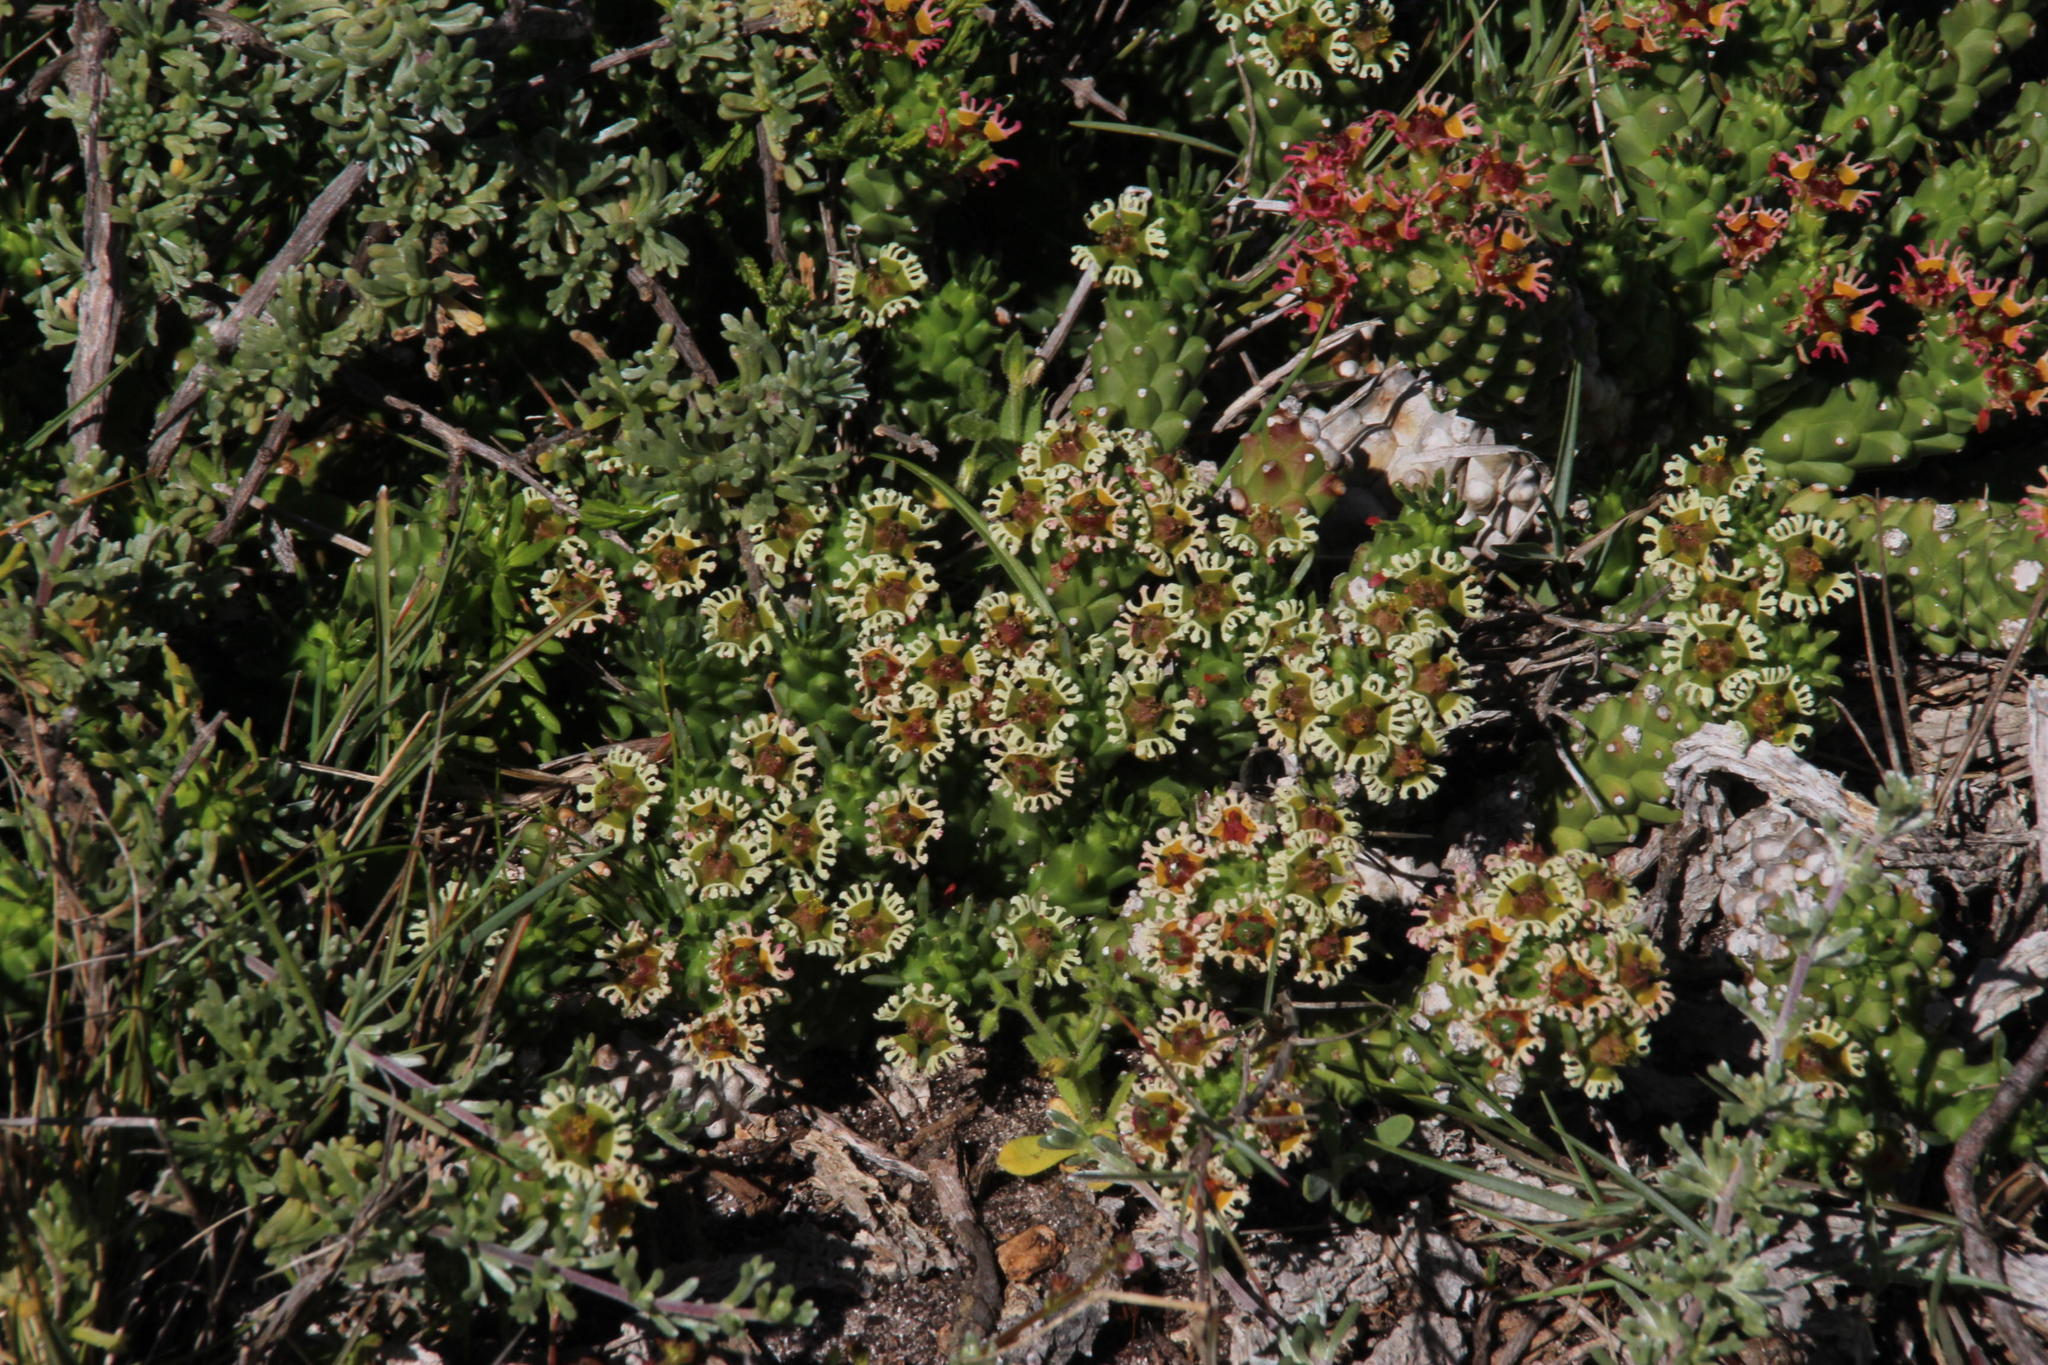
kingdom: Plantae
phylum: Tracheophyta
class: Magnoliopsida
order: Malpighiales
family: Euphorbiaceae
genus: Euphorbia
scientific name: Euphorbia caput-medusae
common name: Medusa's-head
